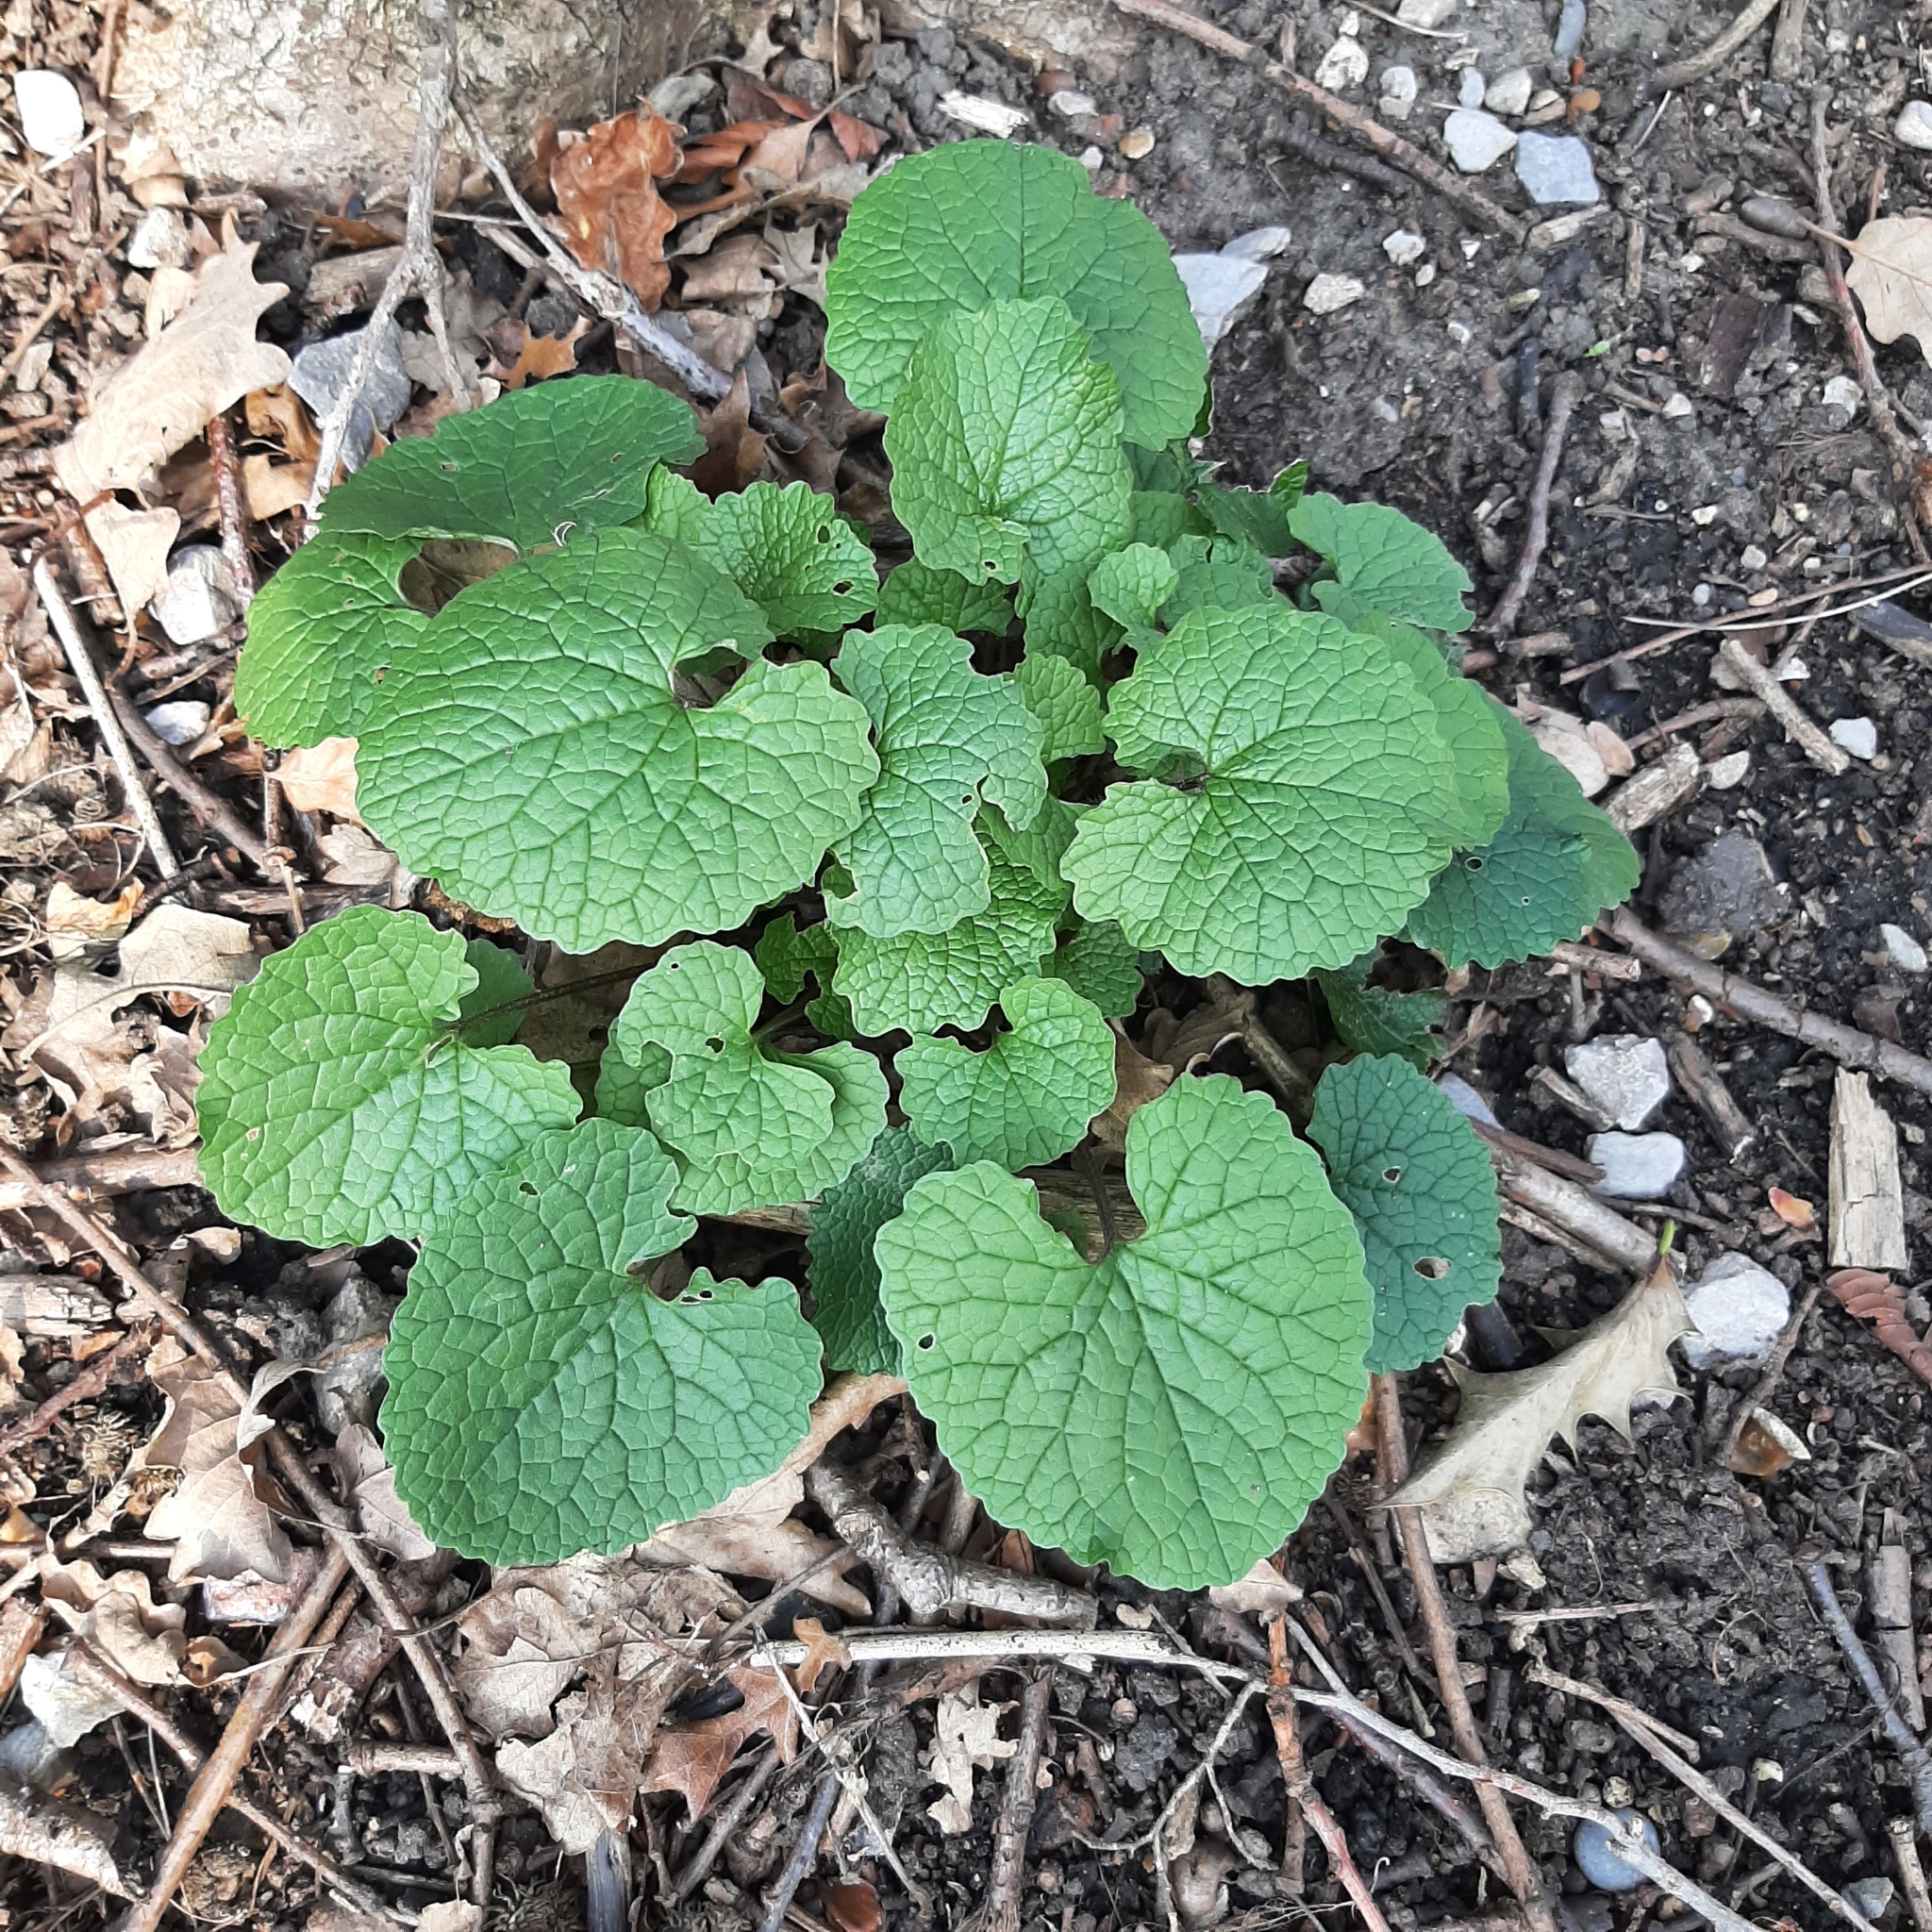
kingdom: Plantae
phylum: Tracheophyta
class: Magnoliopsida
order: Brassicales
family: Brassicaceae
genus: Alliaria
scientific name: Alliaria petiolata
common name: Garlic mustard
